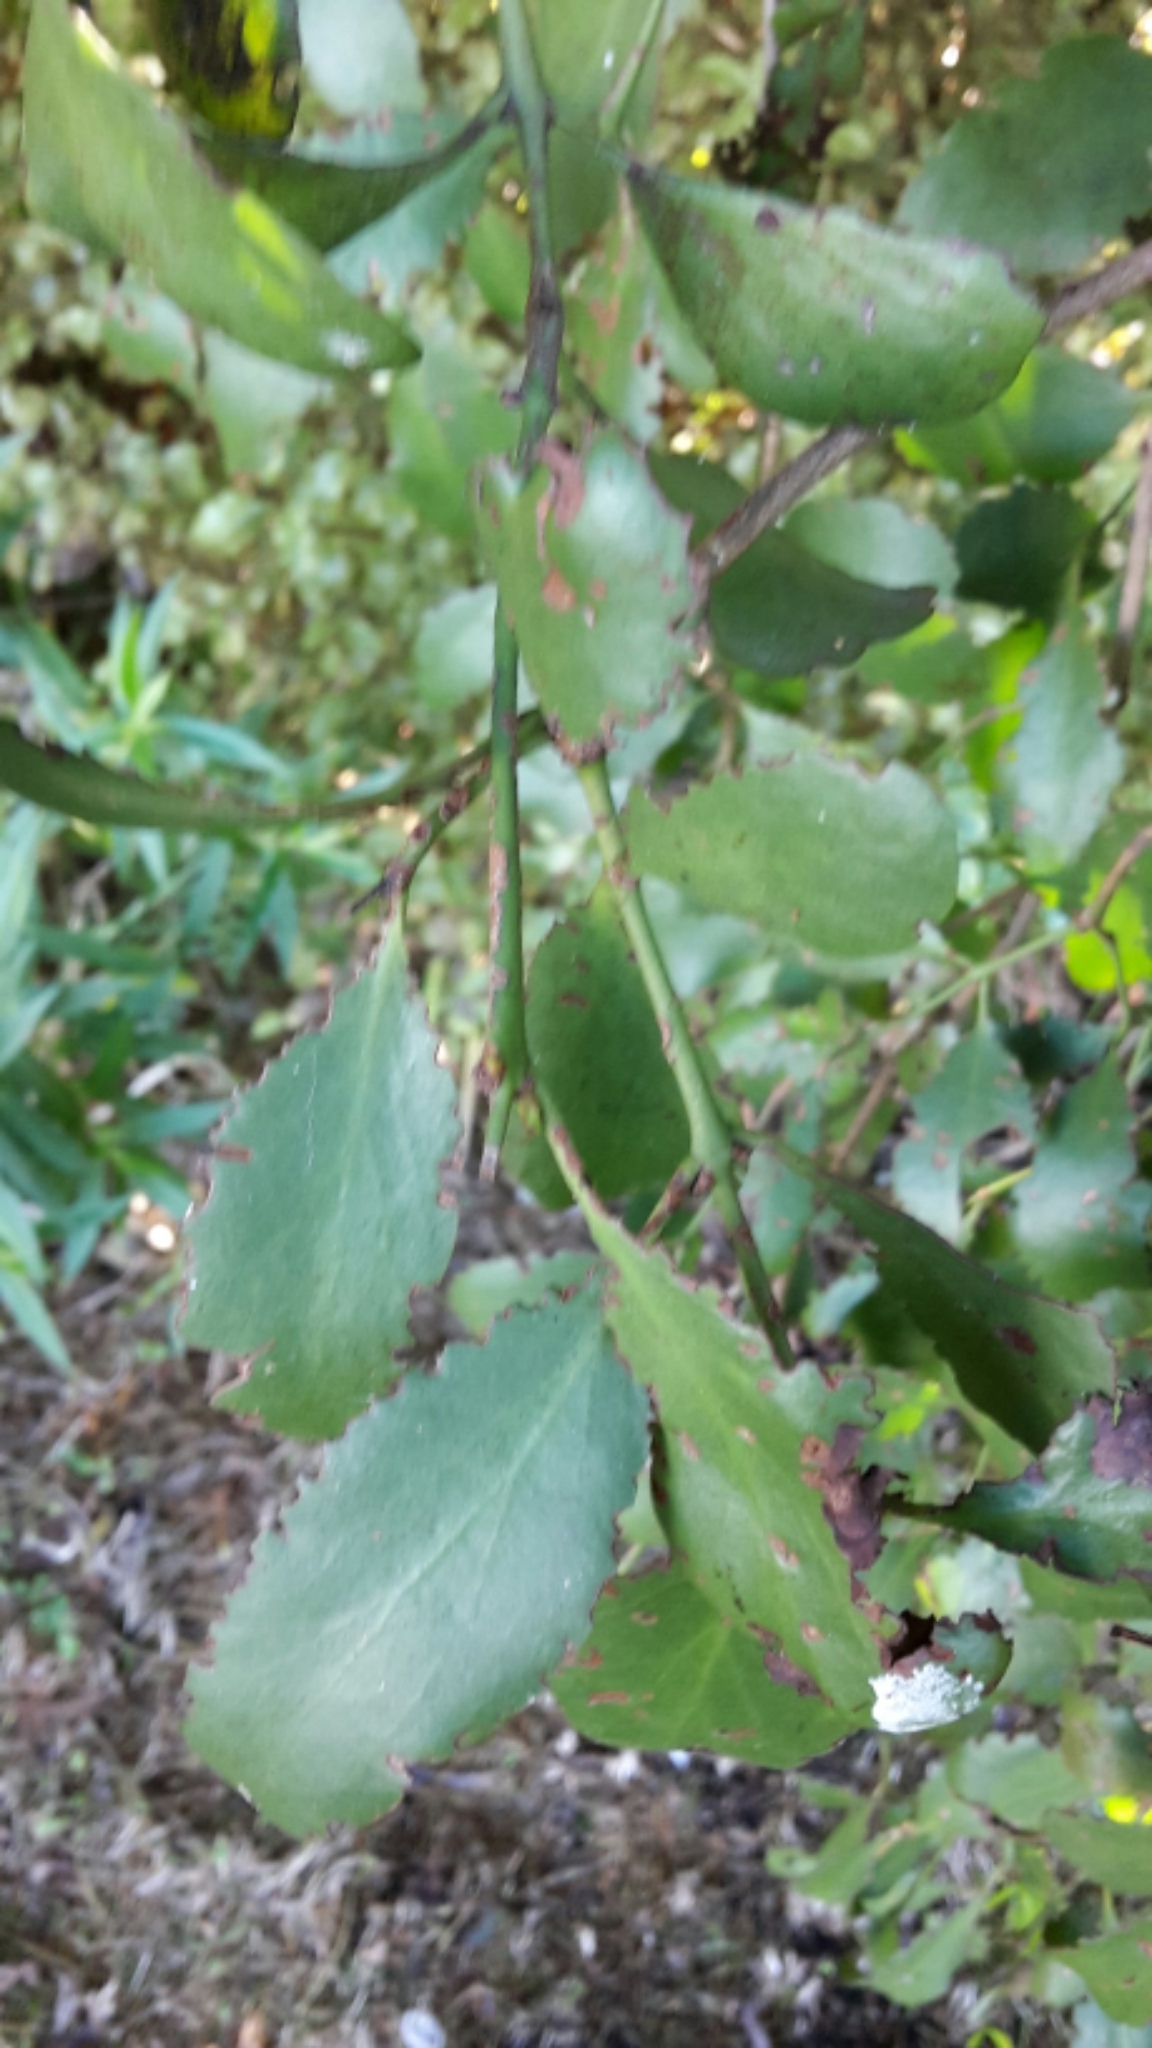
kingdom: Plantae
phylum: Tracheophyta
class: Magnoliopsida
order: Santalales
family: Loranthaceae
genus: Ileostylus
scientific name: Ileostylus micranthus
